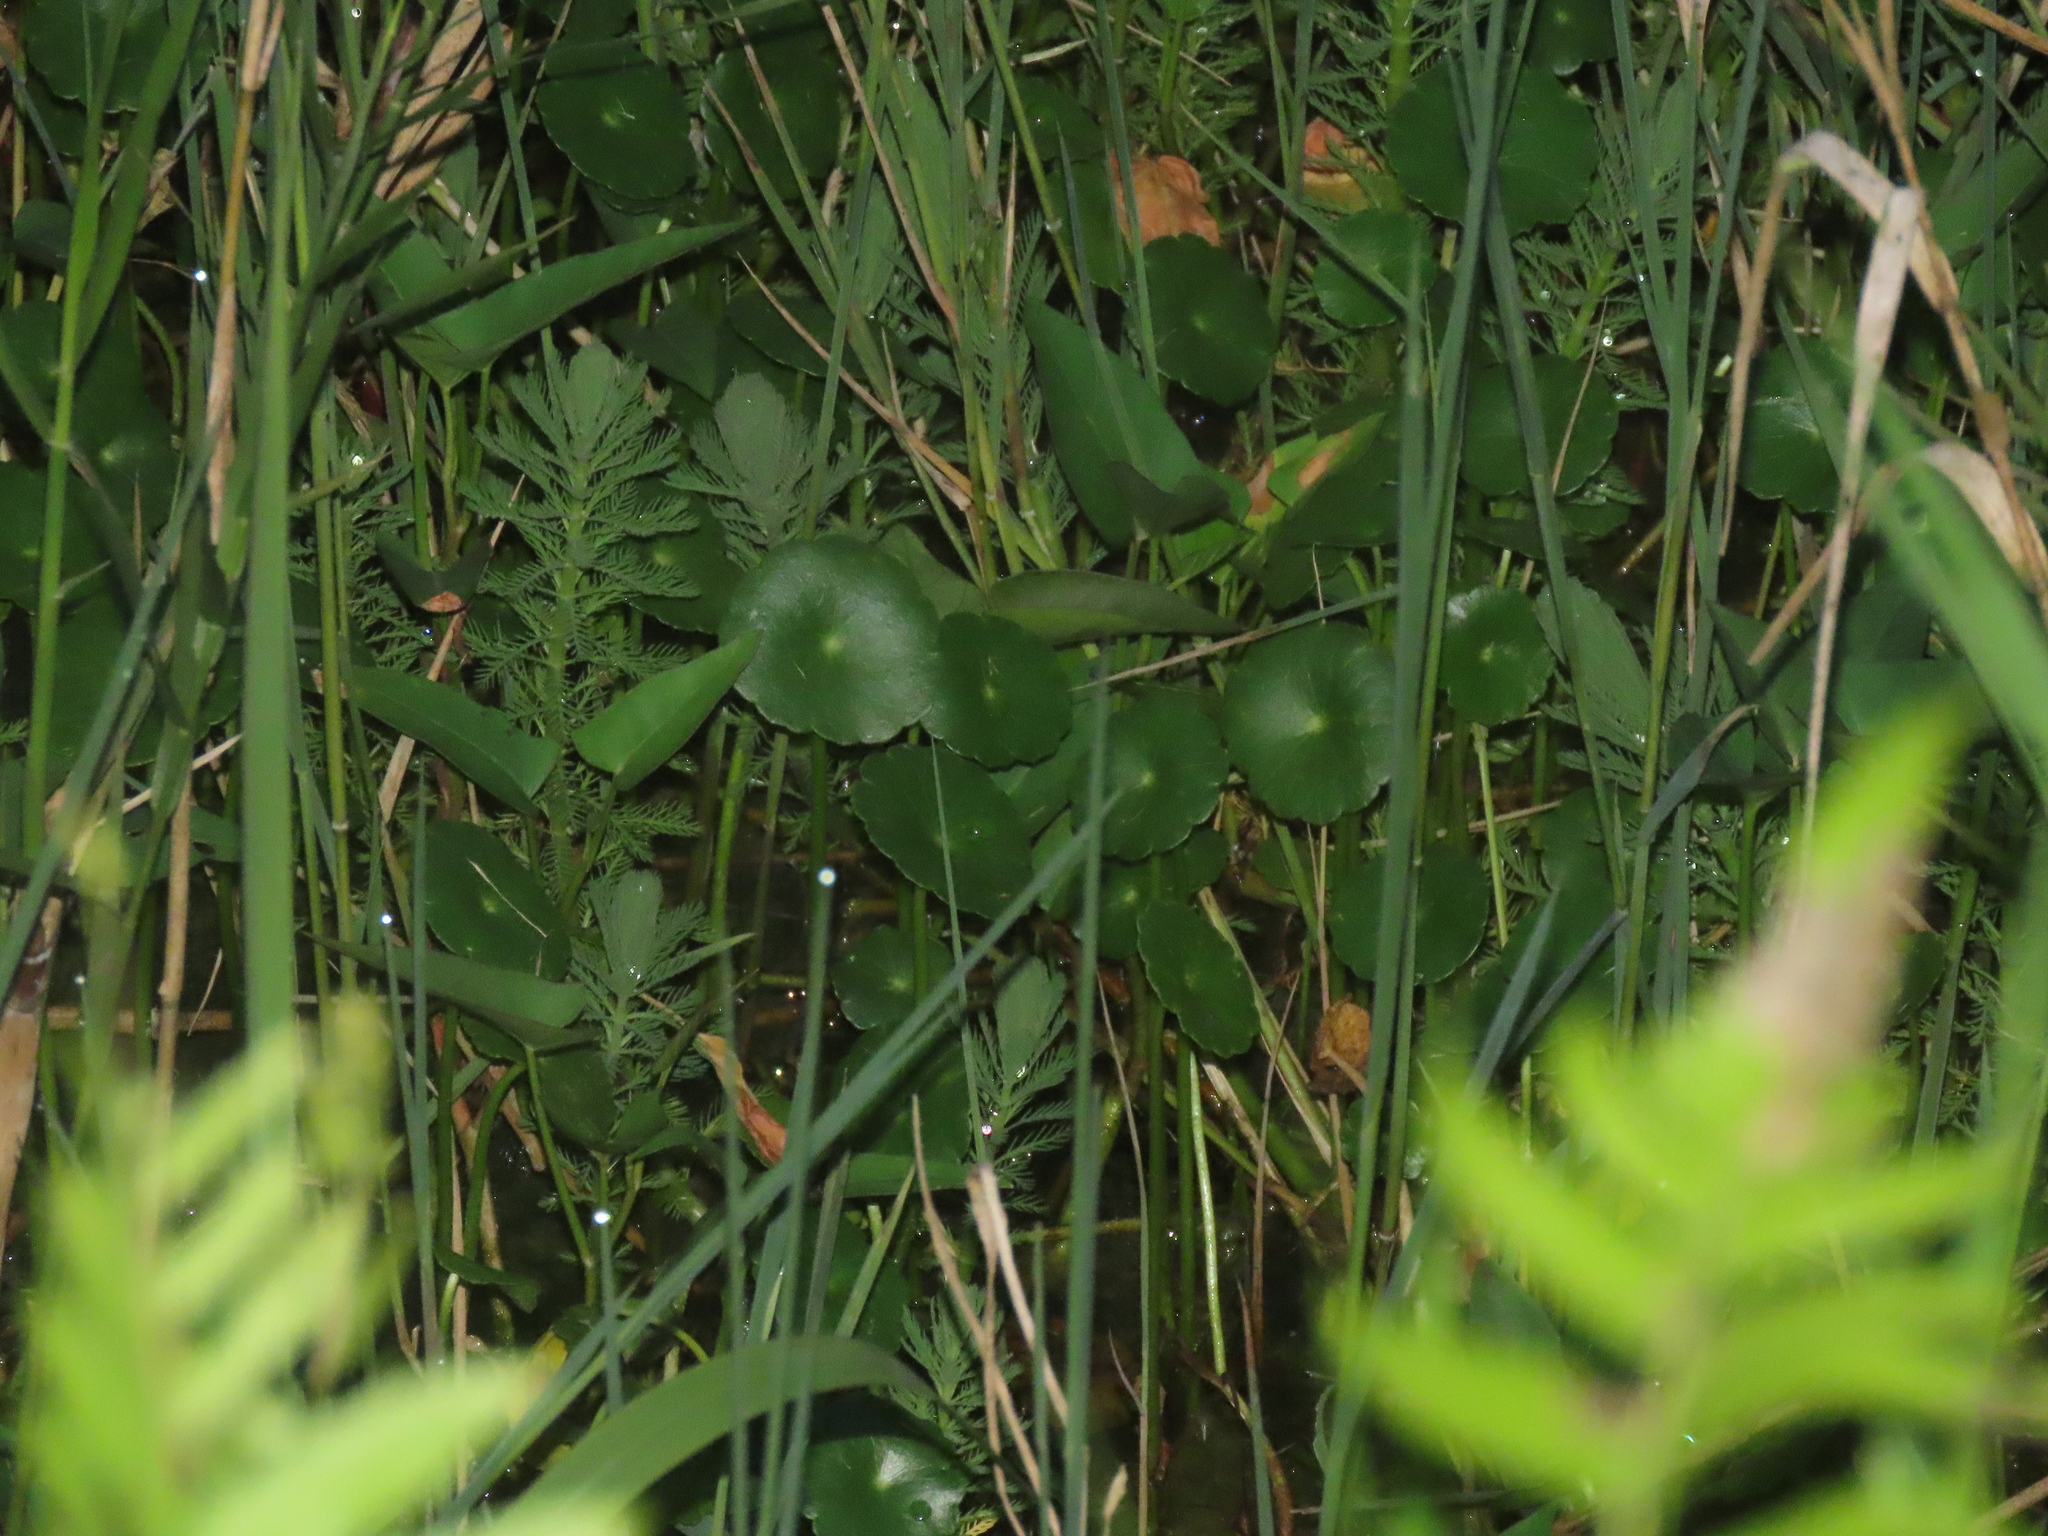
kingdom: Plantae
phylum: Tracheophyta
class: Magnoliopsida
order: Apiales
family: Araliaceae
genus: Hydrocotyle
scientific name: Hydrocotyle verticillata
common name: Whorled marshpennywort
